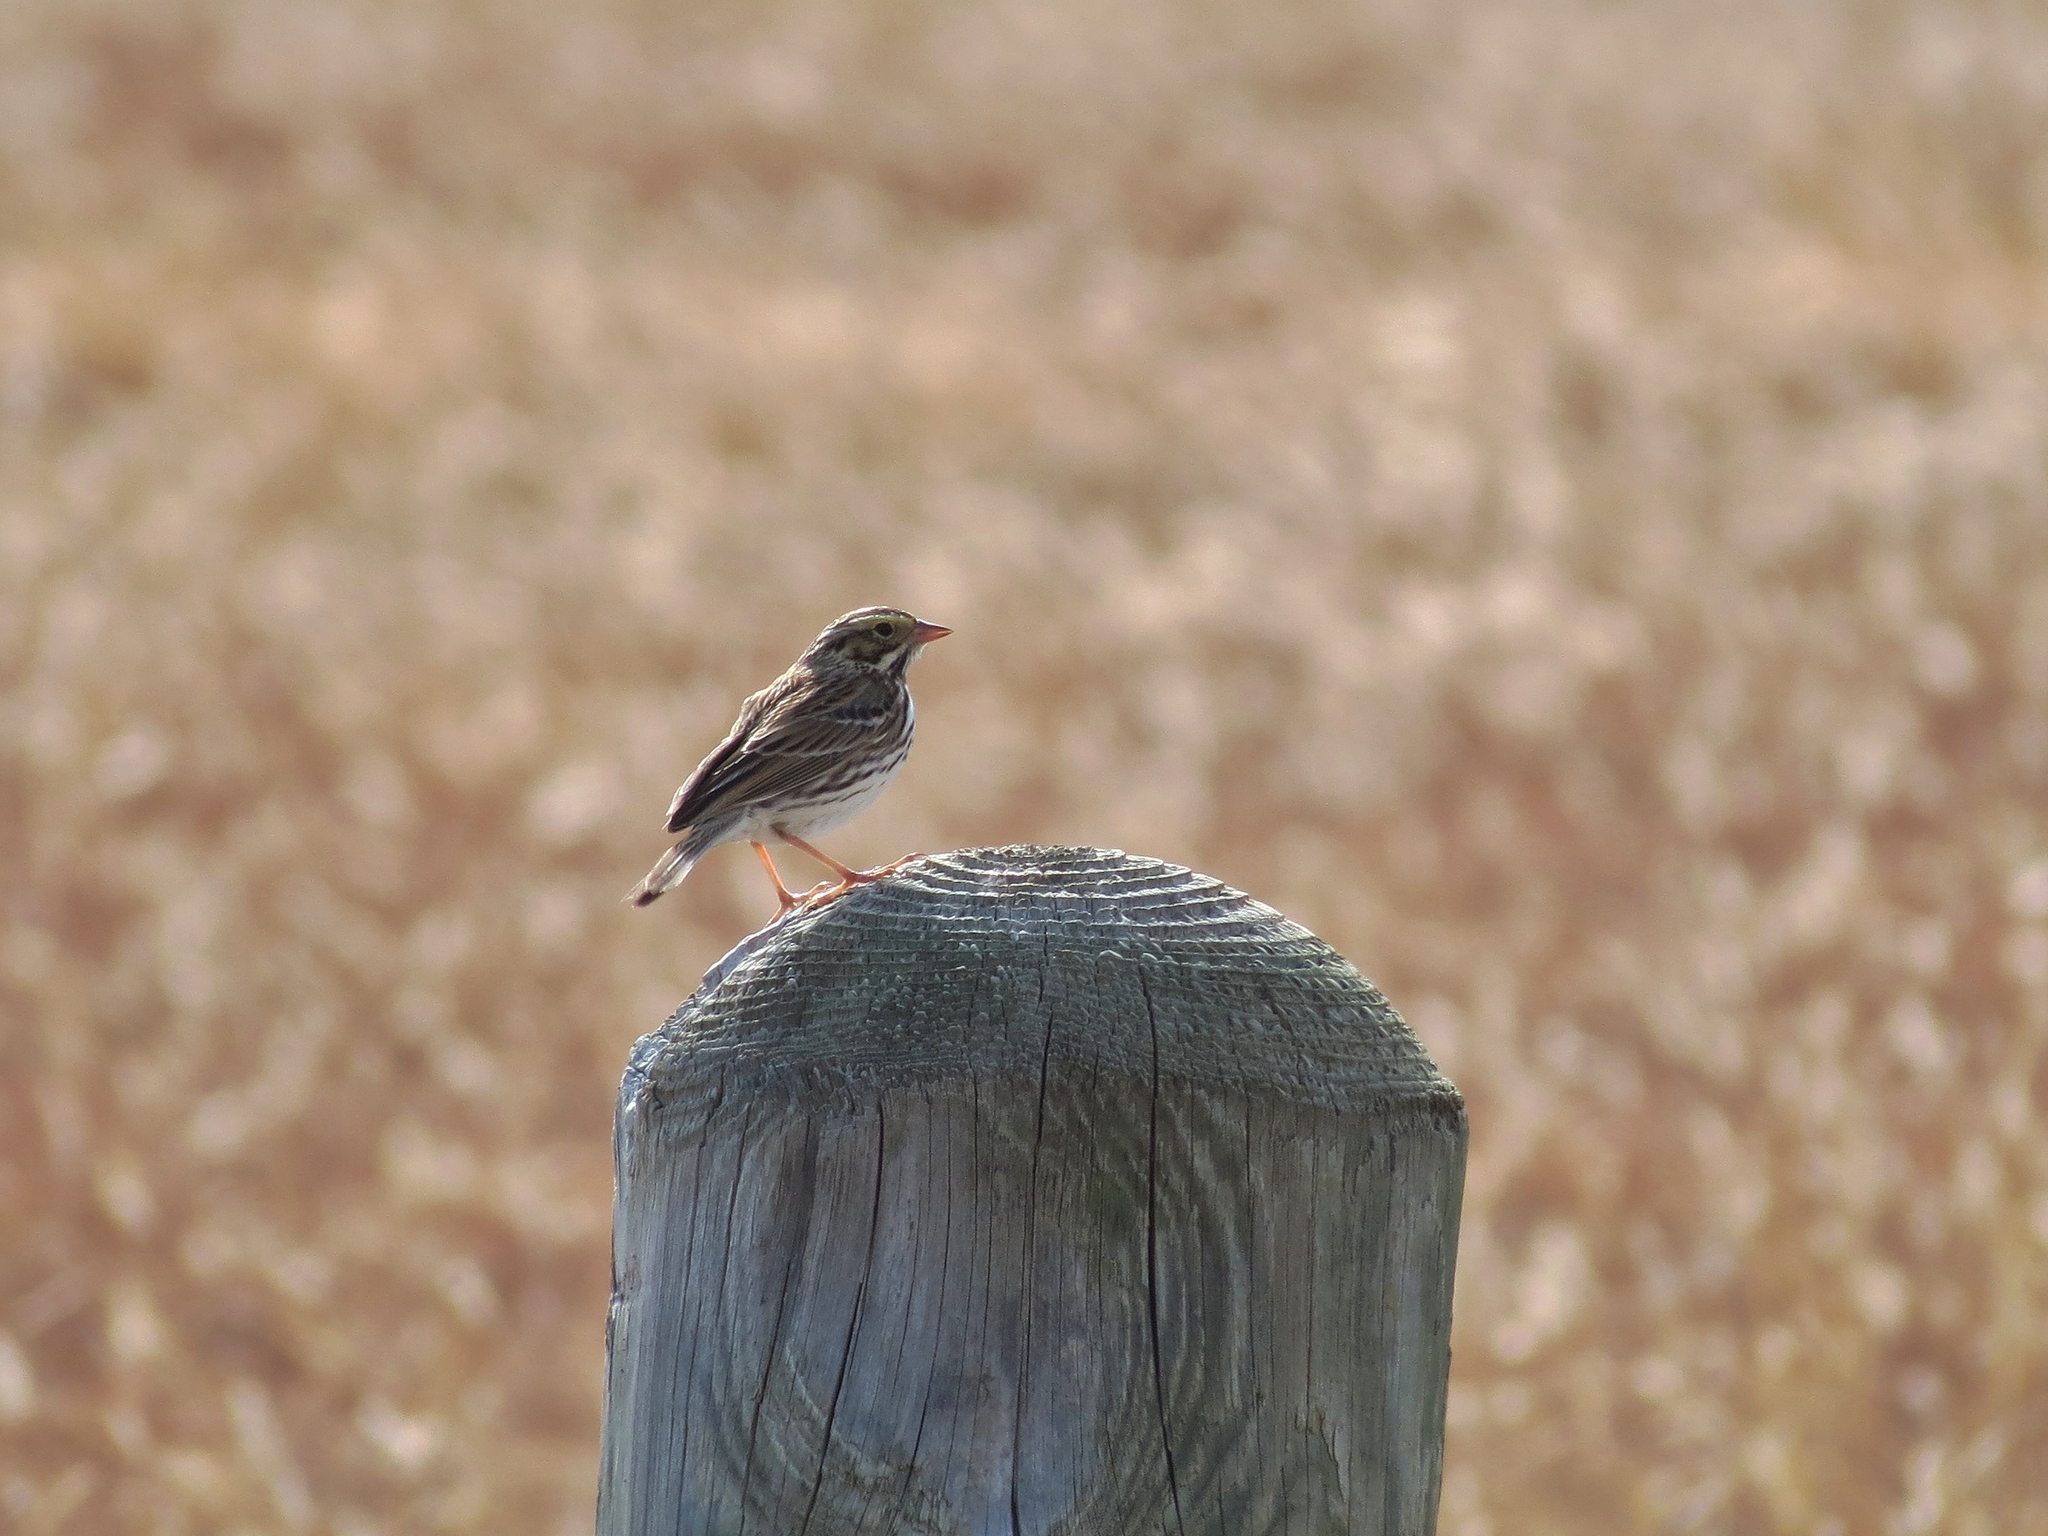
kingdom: Animalia
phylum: Chordata
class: Aves
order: Passeriformes
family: Passerellidae
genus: Passerculus
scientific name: Passerculus sandwichensis
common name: Savannah sparrow
